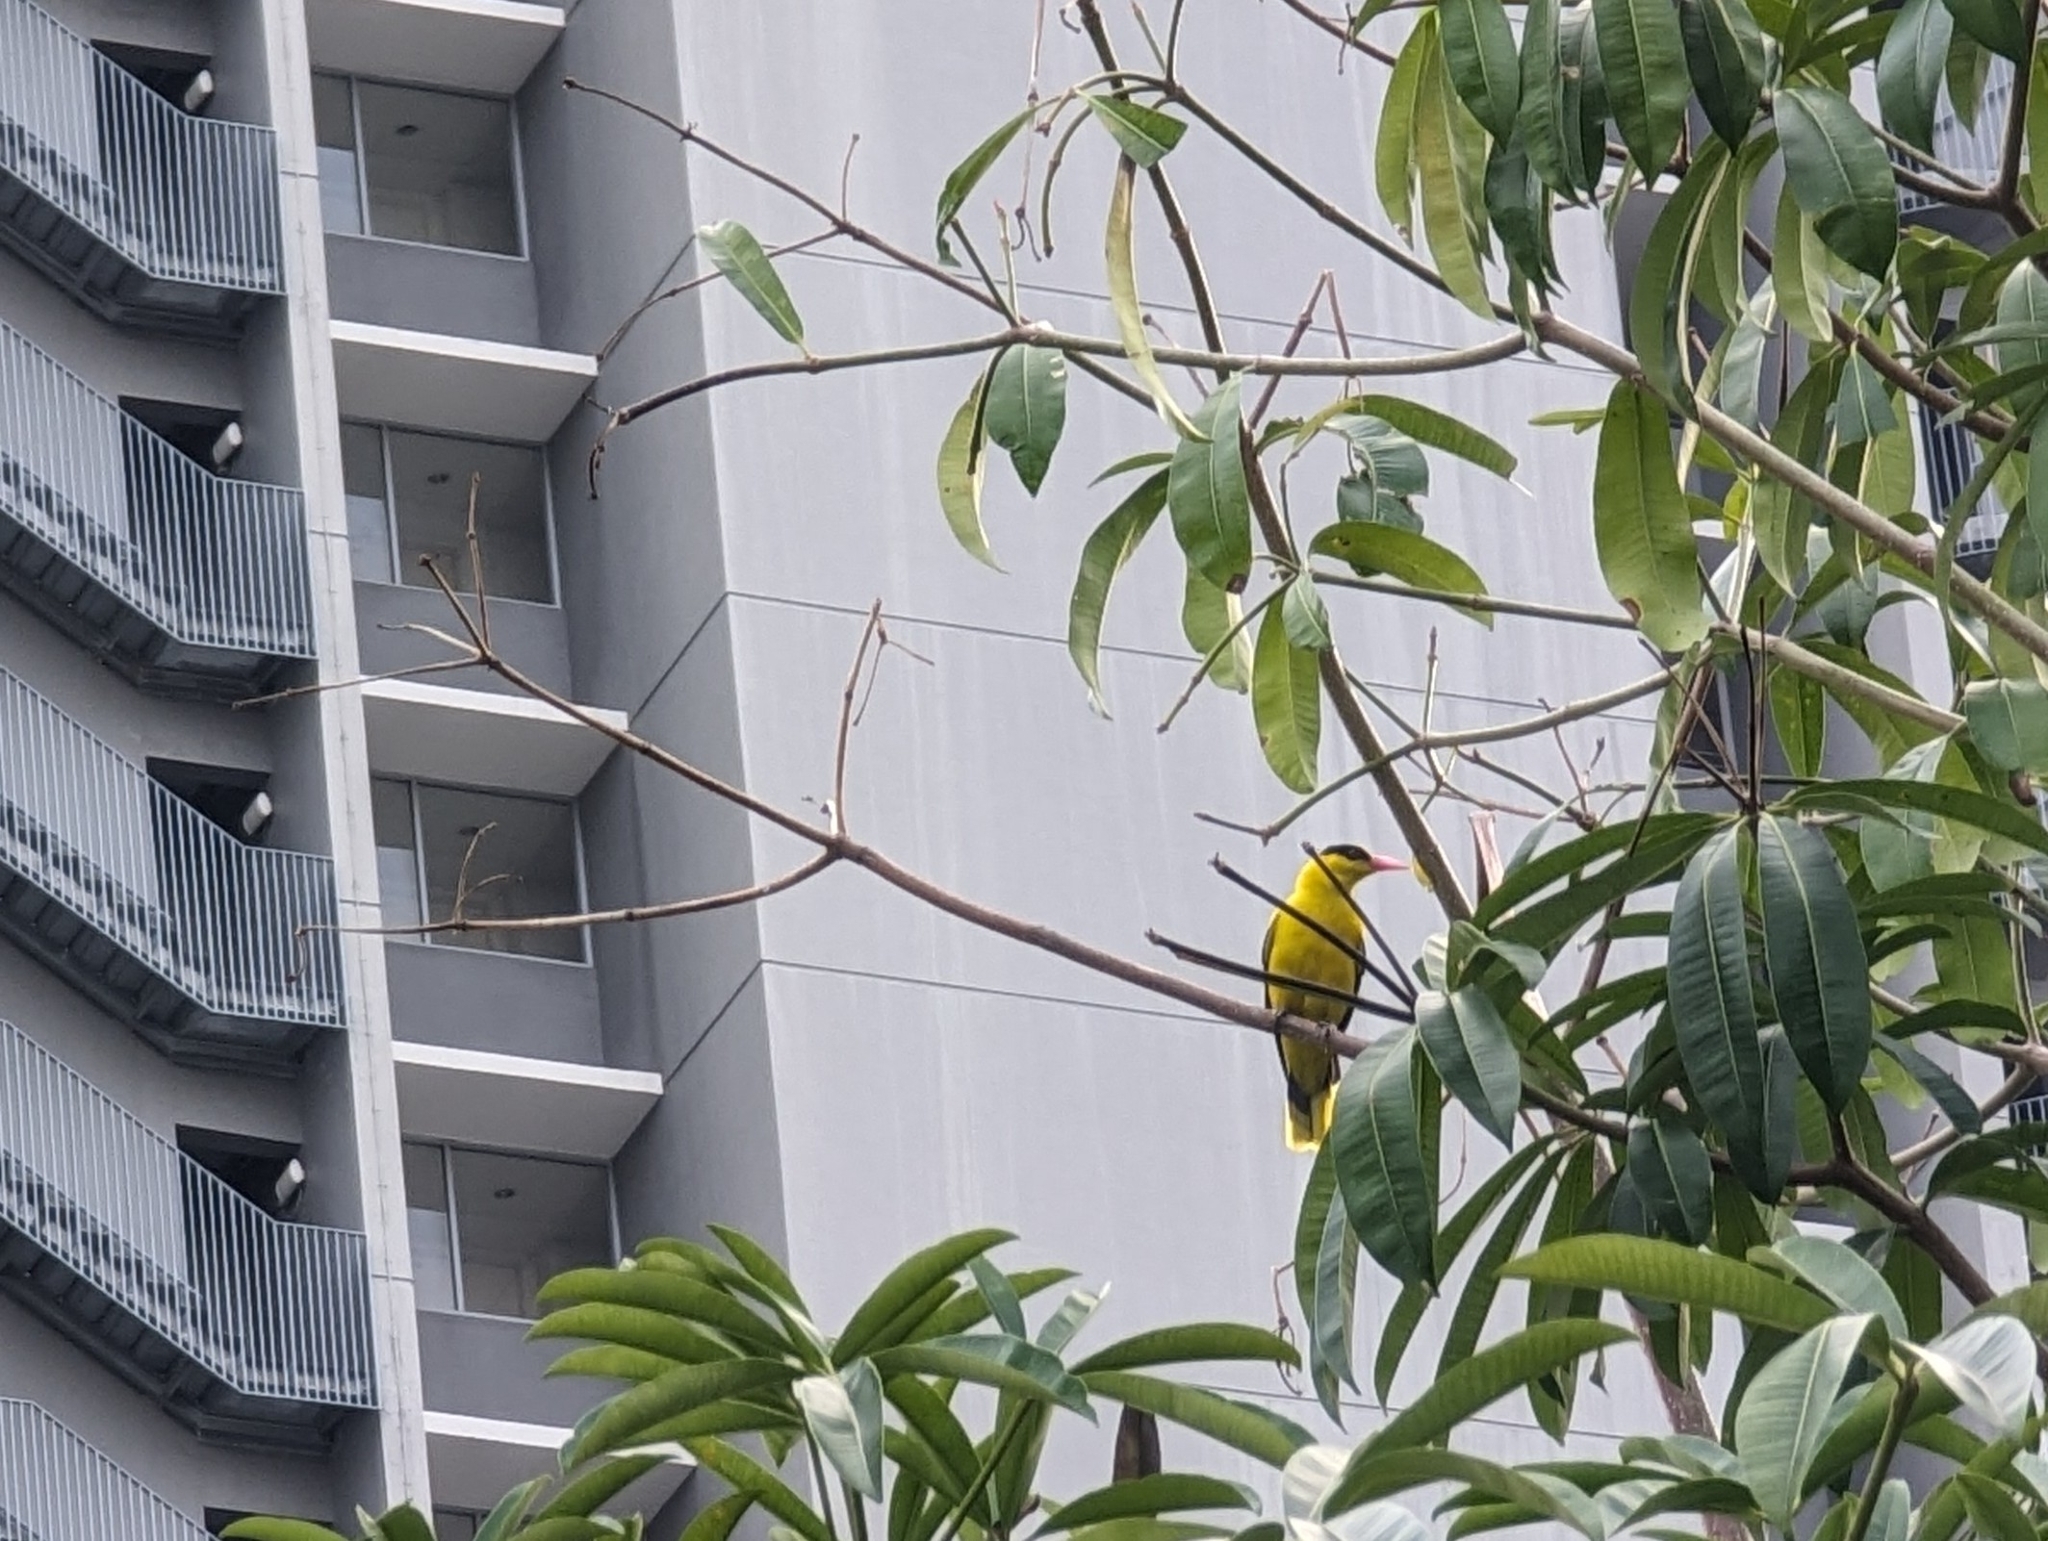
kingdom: Animalia
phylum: Chordata
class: Aves
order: Passeriformes
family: Oriolidae
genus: Oriolus
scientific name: Oriolus chinensis
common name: Black-naped oriole
